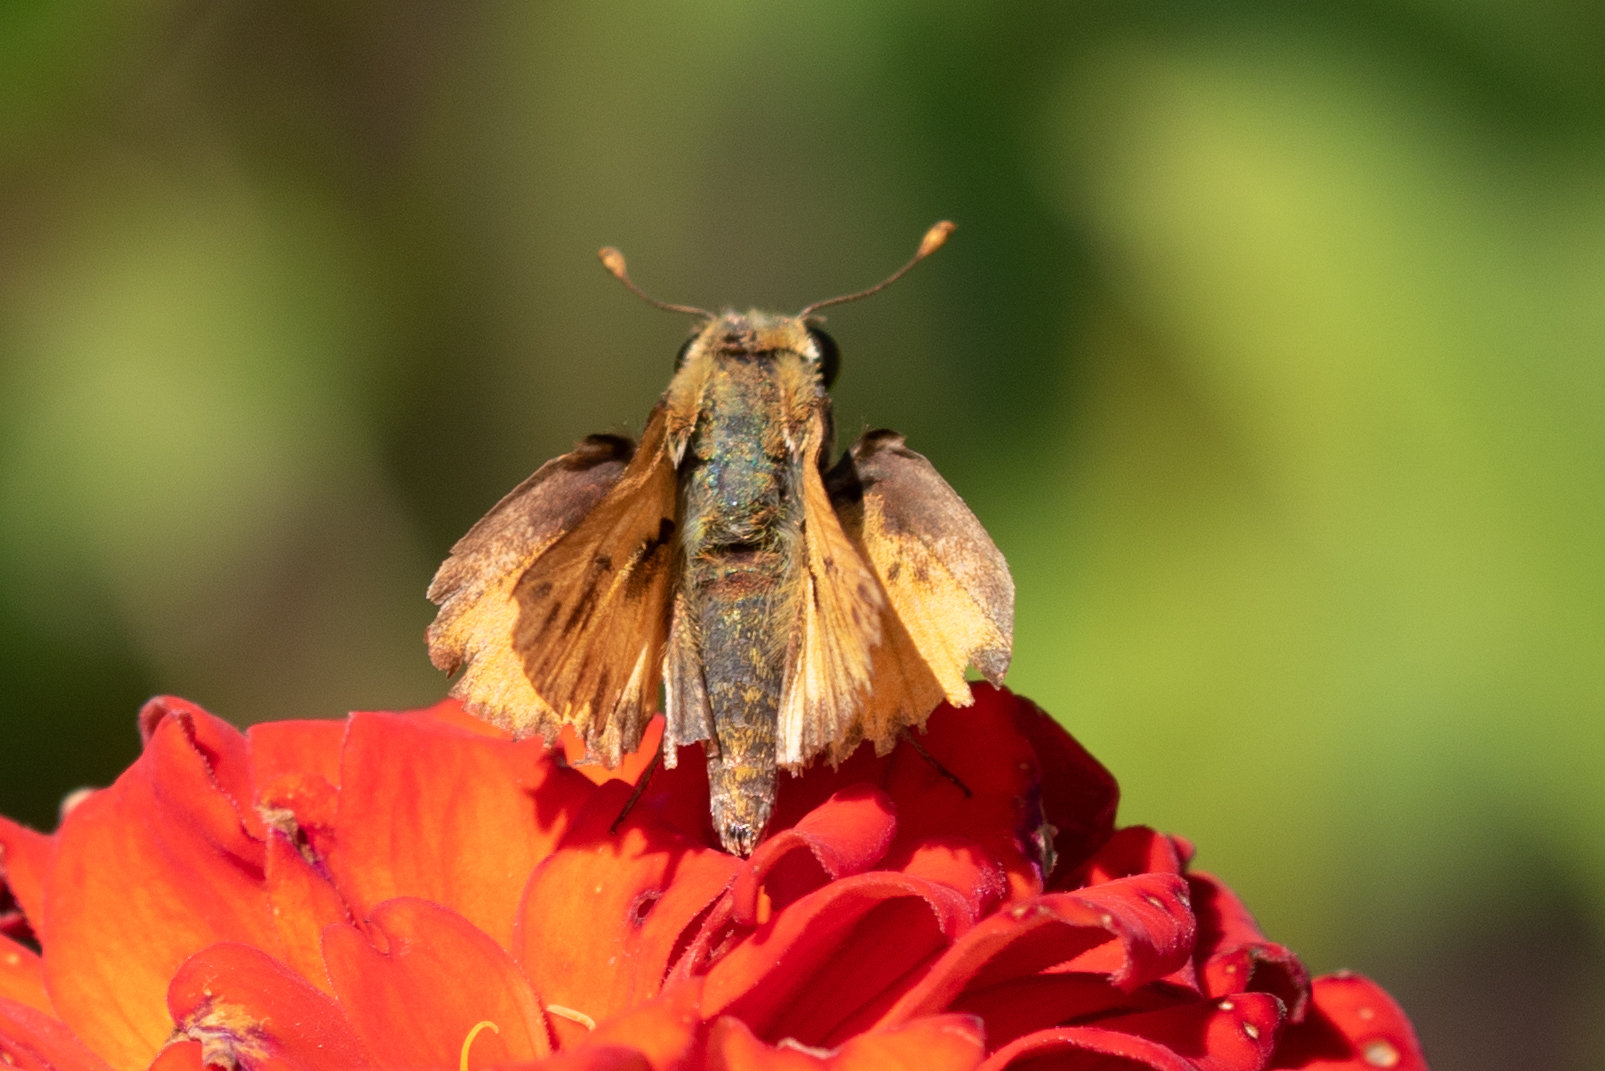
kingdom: Animalia
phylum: Arthropoda
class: Insecta
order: Lepidoptera
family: Hesperiidae
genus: Hylephila
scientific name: Hylephila phyleus
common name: Fiery skipper
